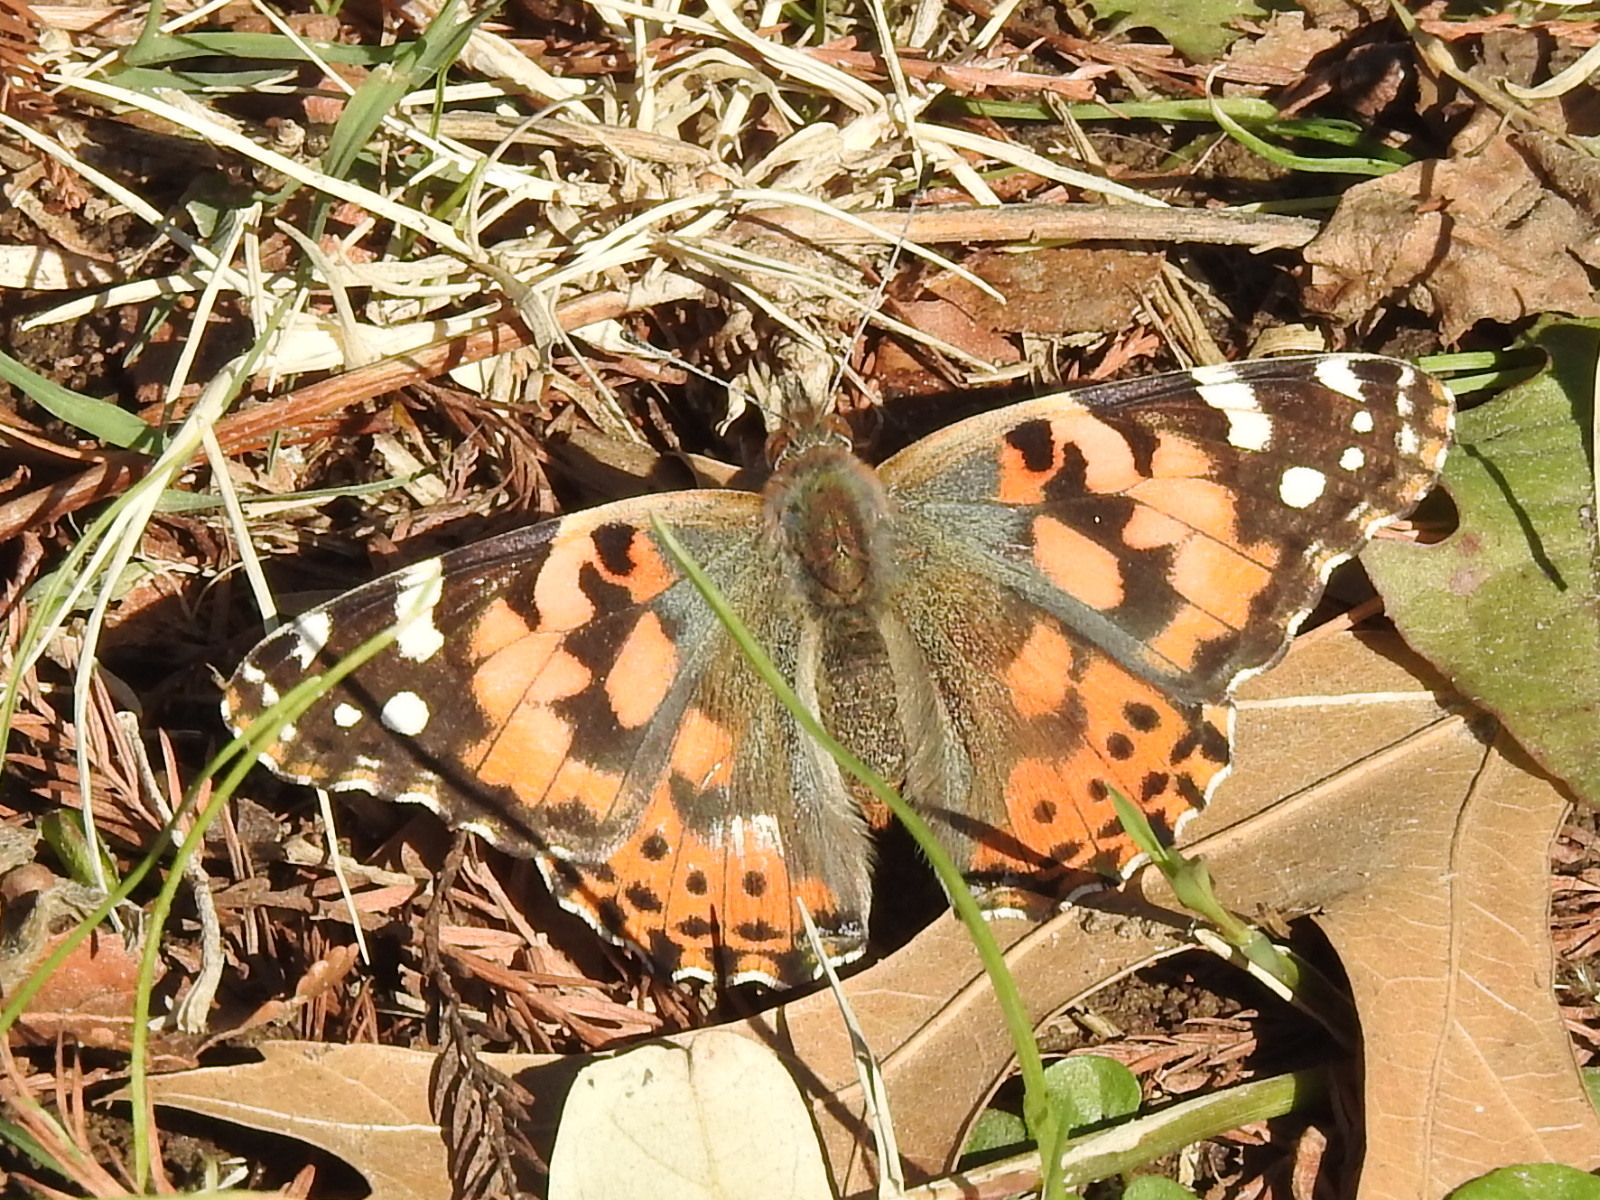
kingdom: Animalia
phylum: Arthropoda
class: Insecta
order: Lepidoptera
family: Nymphalidae
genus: Vanessa
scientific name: Vanessa cardui
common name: Painted lady
